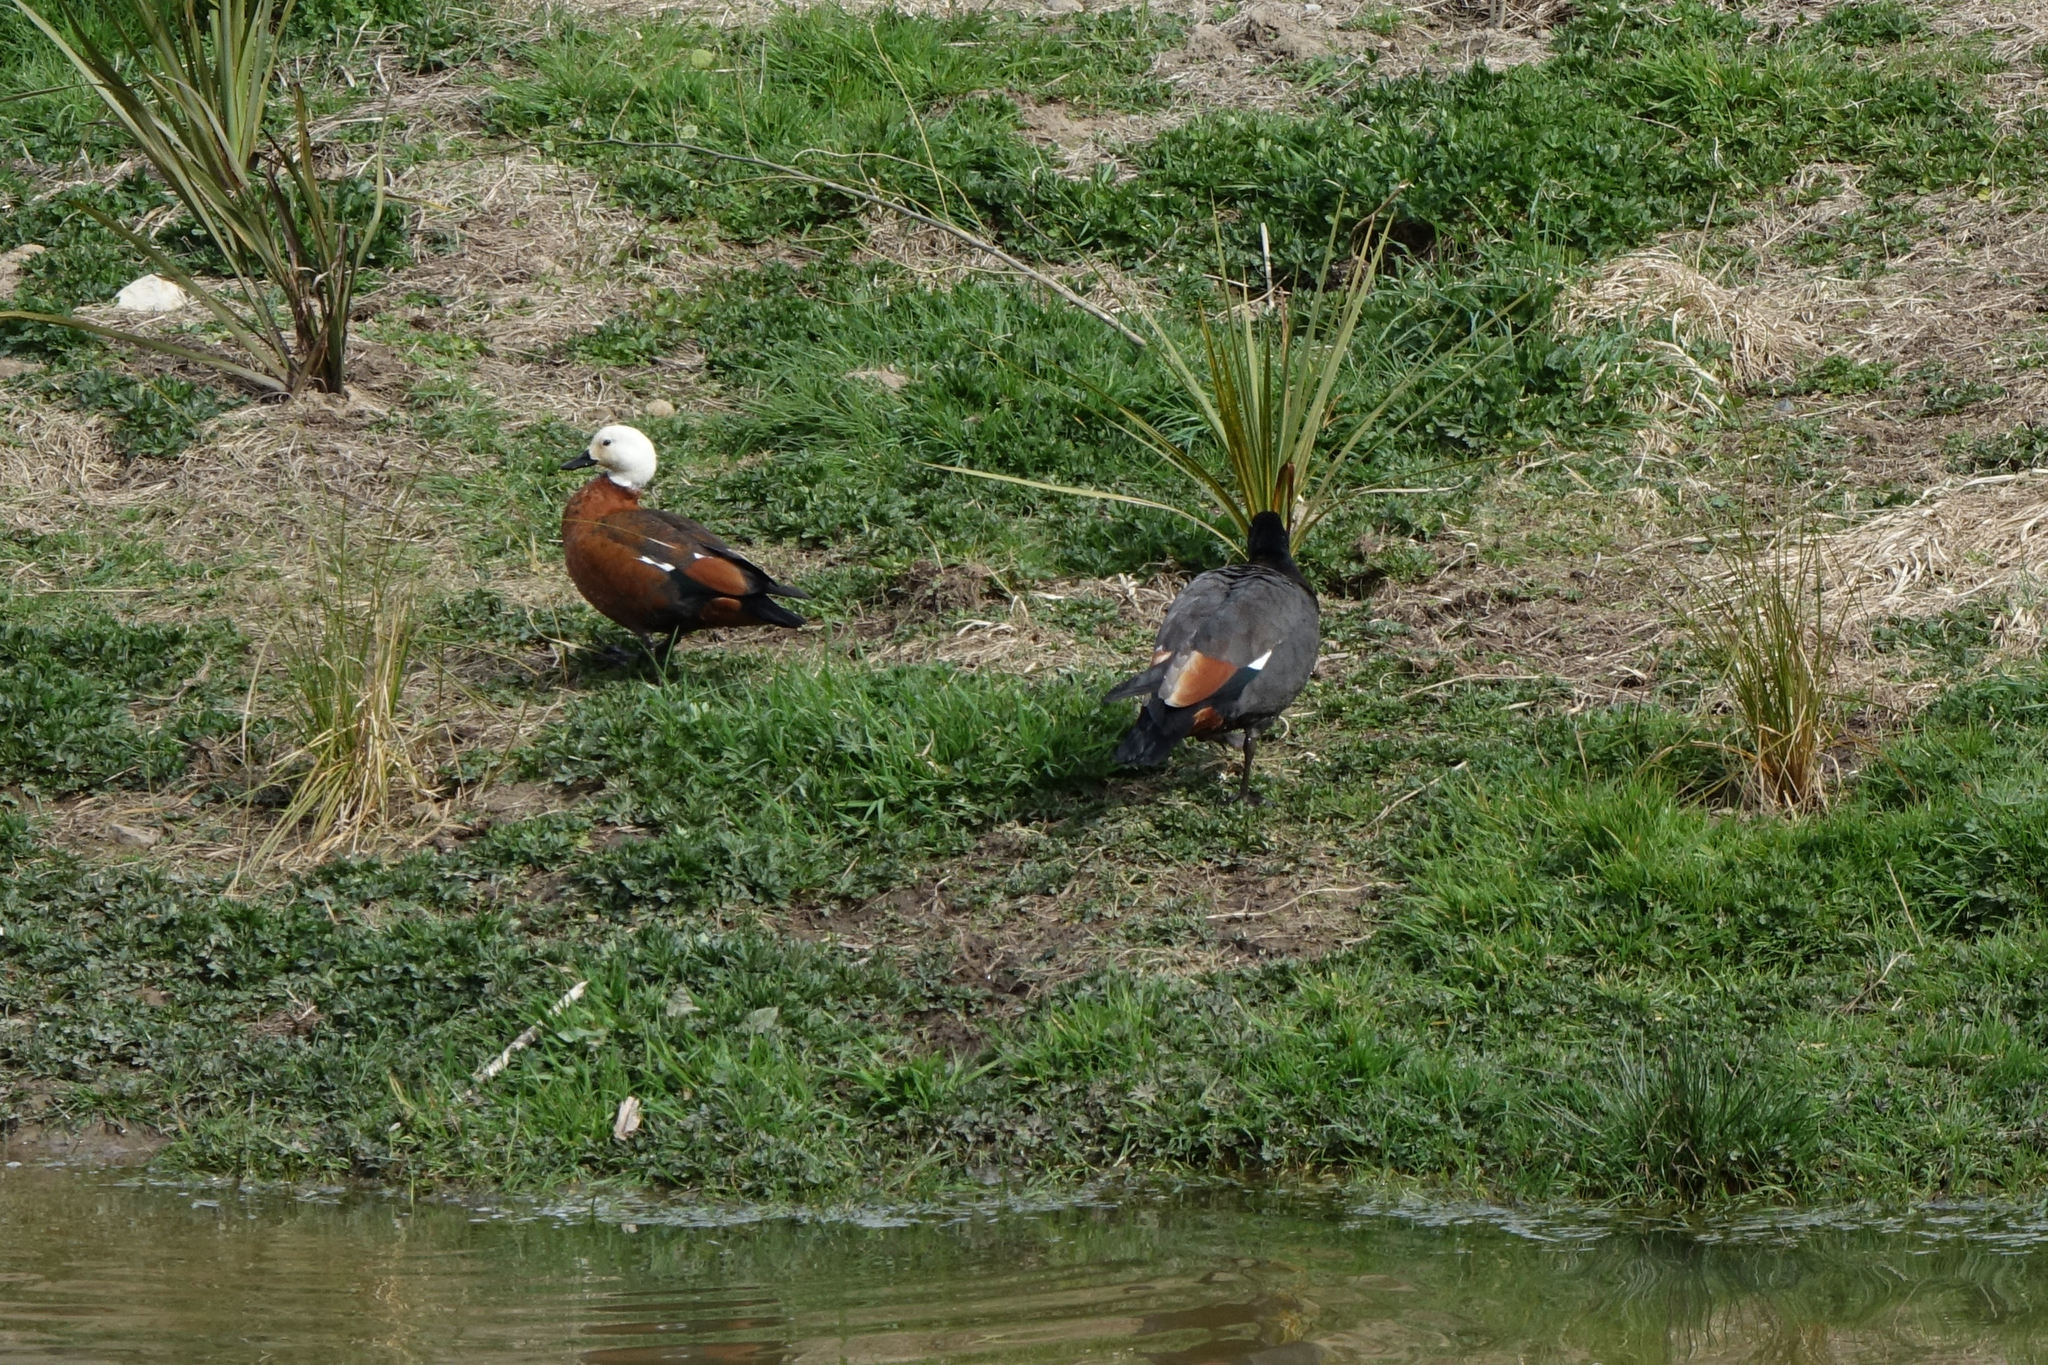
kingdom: Animalia
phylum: Chordata
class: Aves
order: Anseriformes
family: Anatidae
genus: Tadorna
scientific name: Tadorna variegata
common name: Paradise shelduck
